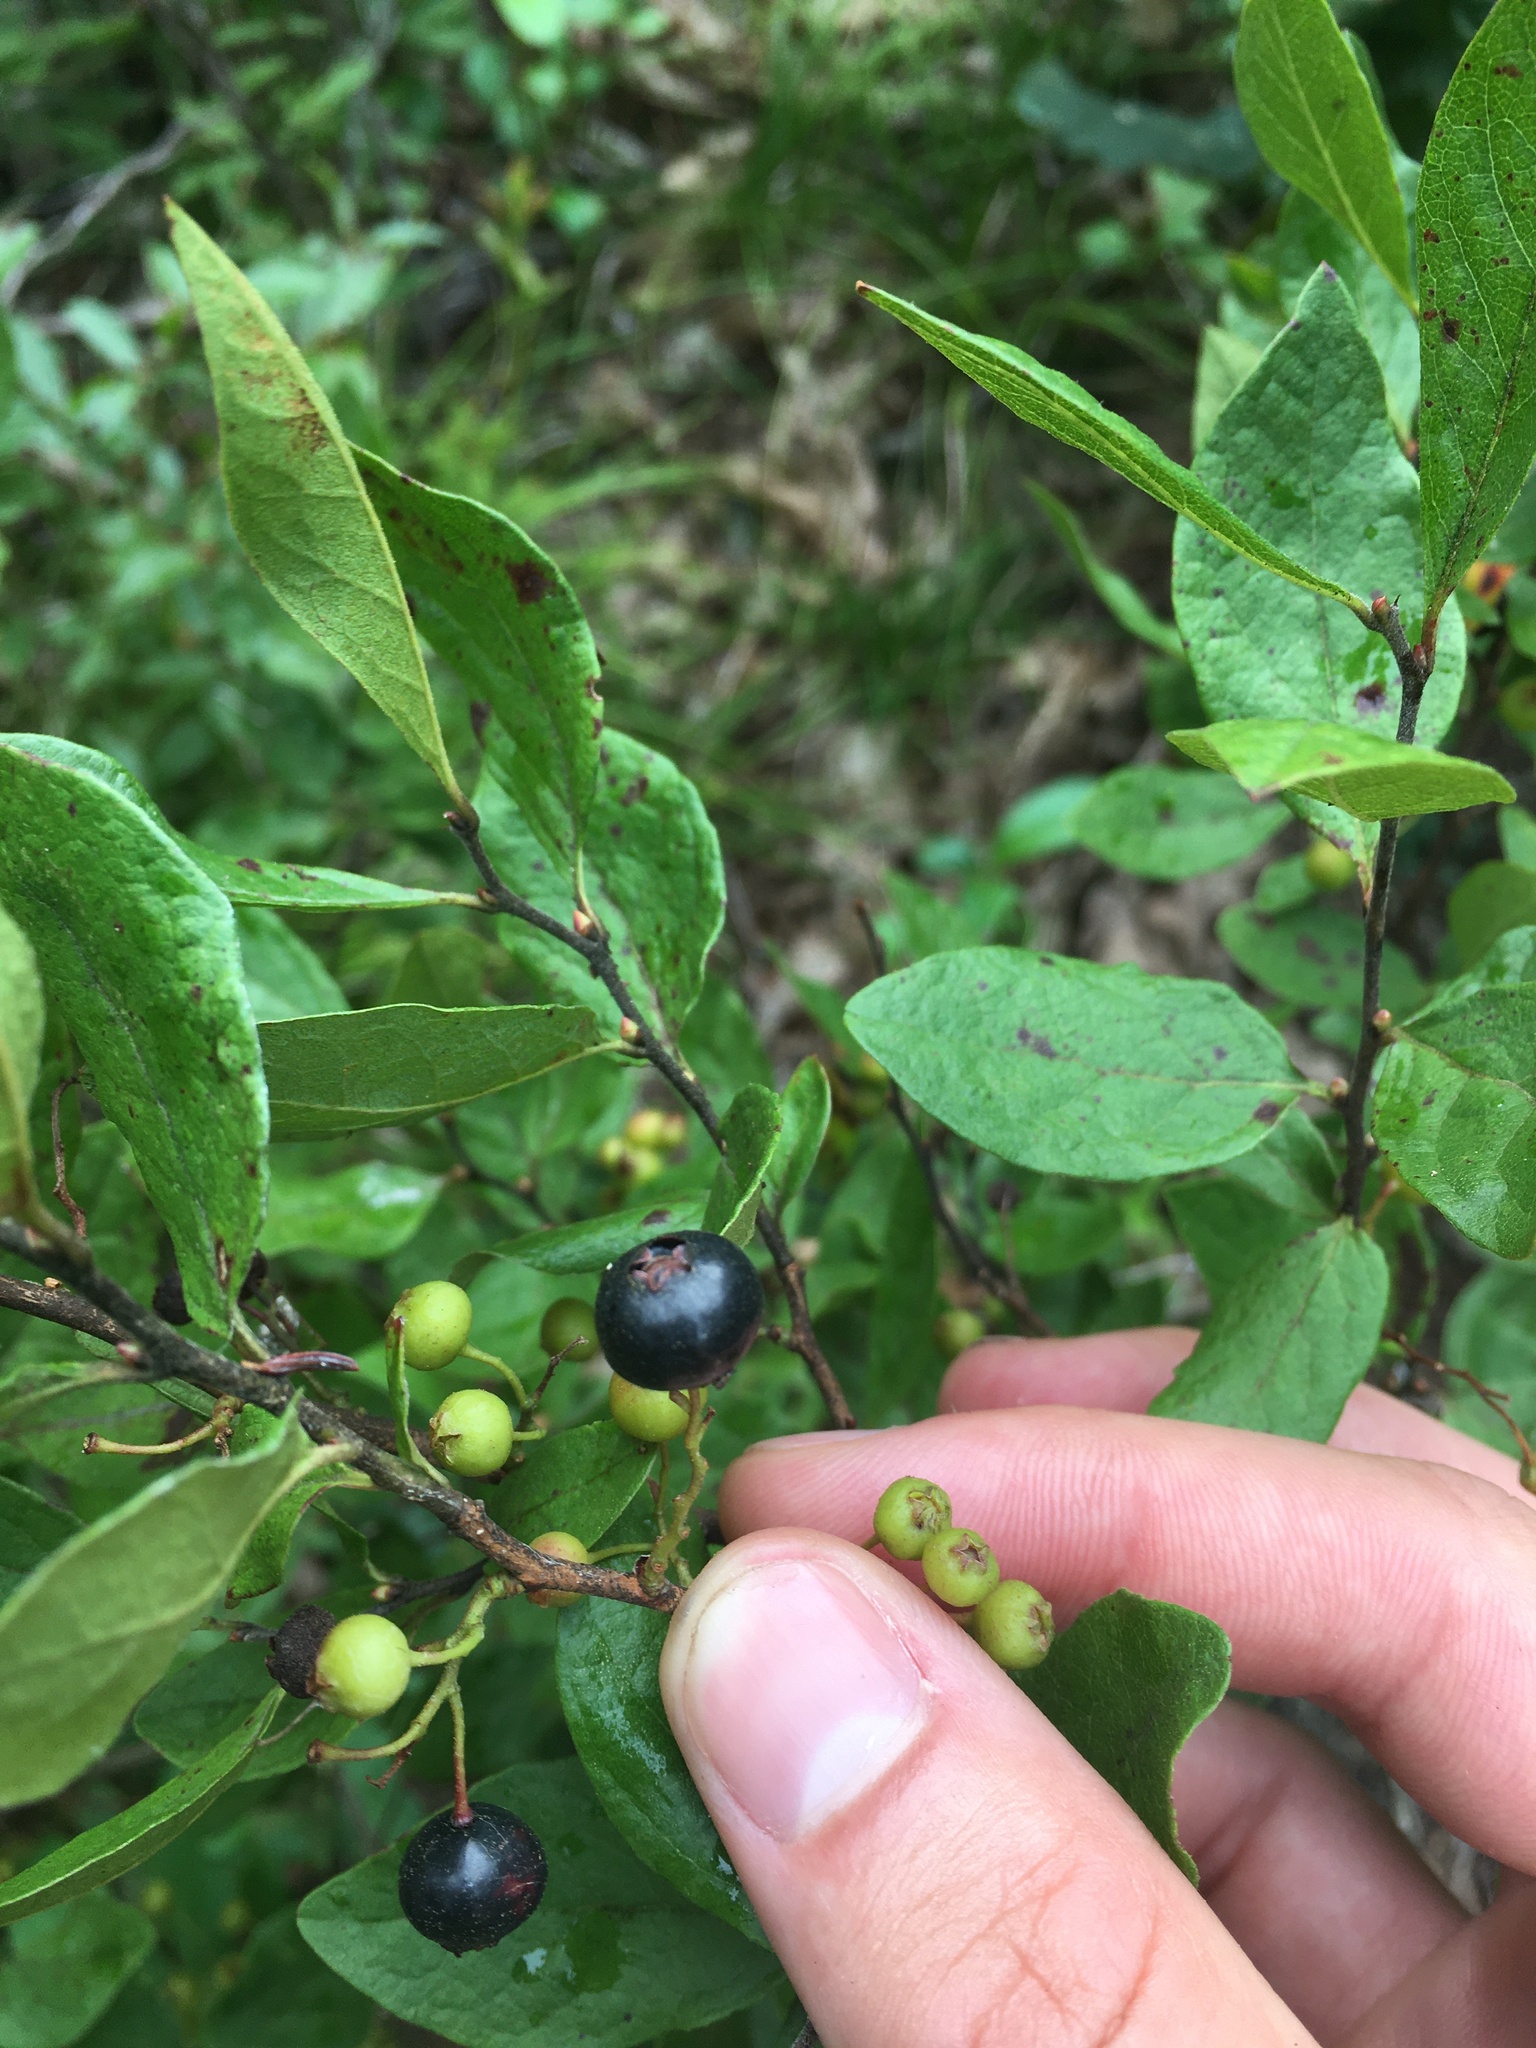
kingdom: Plantae
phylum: Tracheophyta
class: Magnoliopsida
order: Ericales
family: Ericaceae
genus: Gaylussacia
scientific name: Gaylussacia baccata
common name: Black huckleberry
